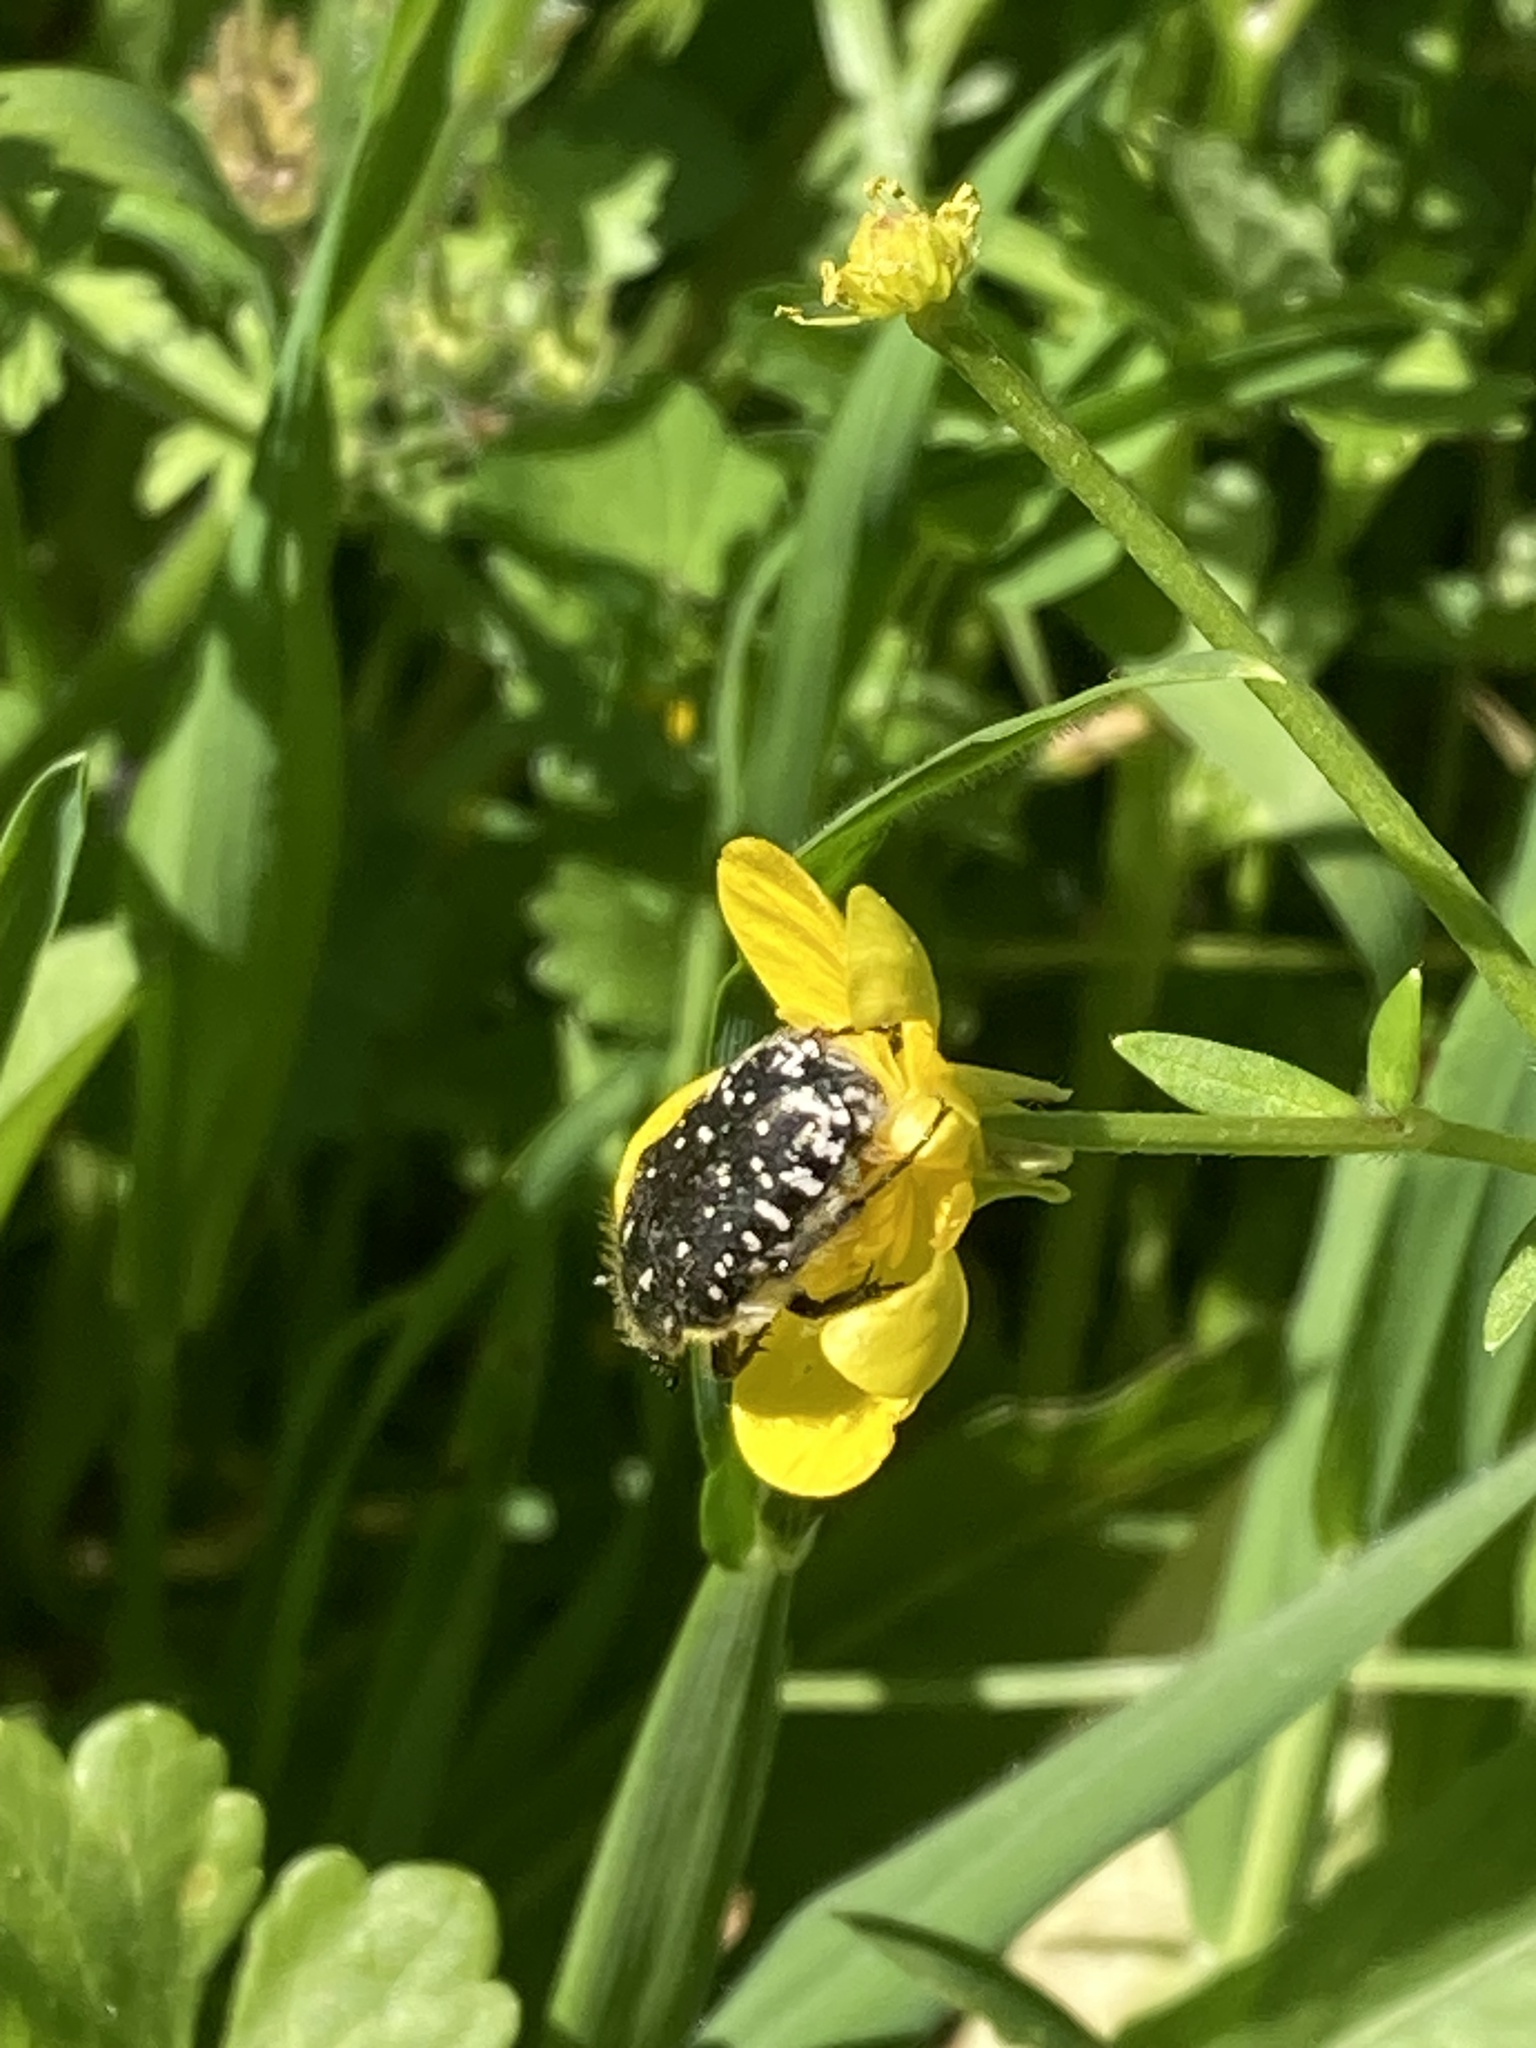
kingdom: Animalia
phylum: Arthropoda
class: Insecta
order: Coleoptera
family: Scarabaeidae
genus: Oxythyrea
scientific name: Oxythyrea funesta
